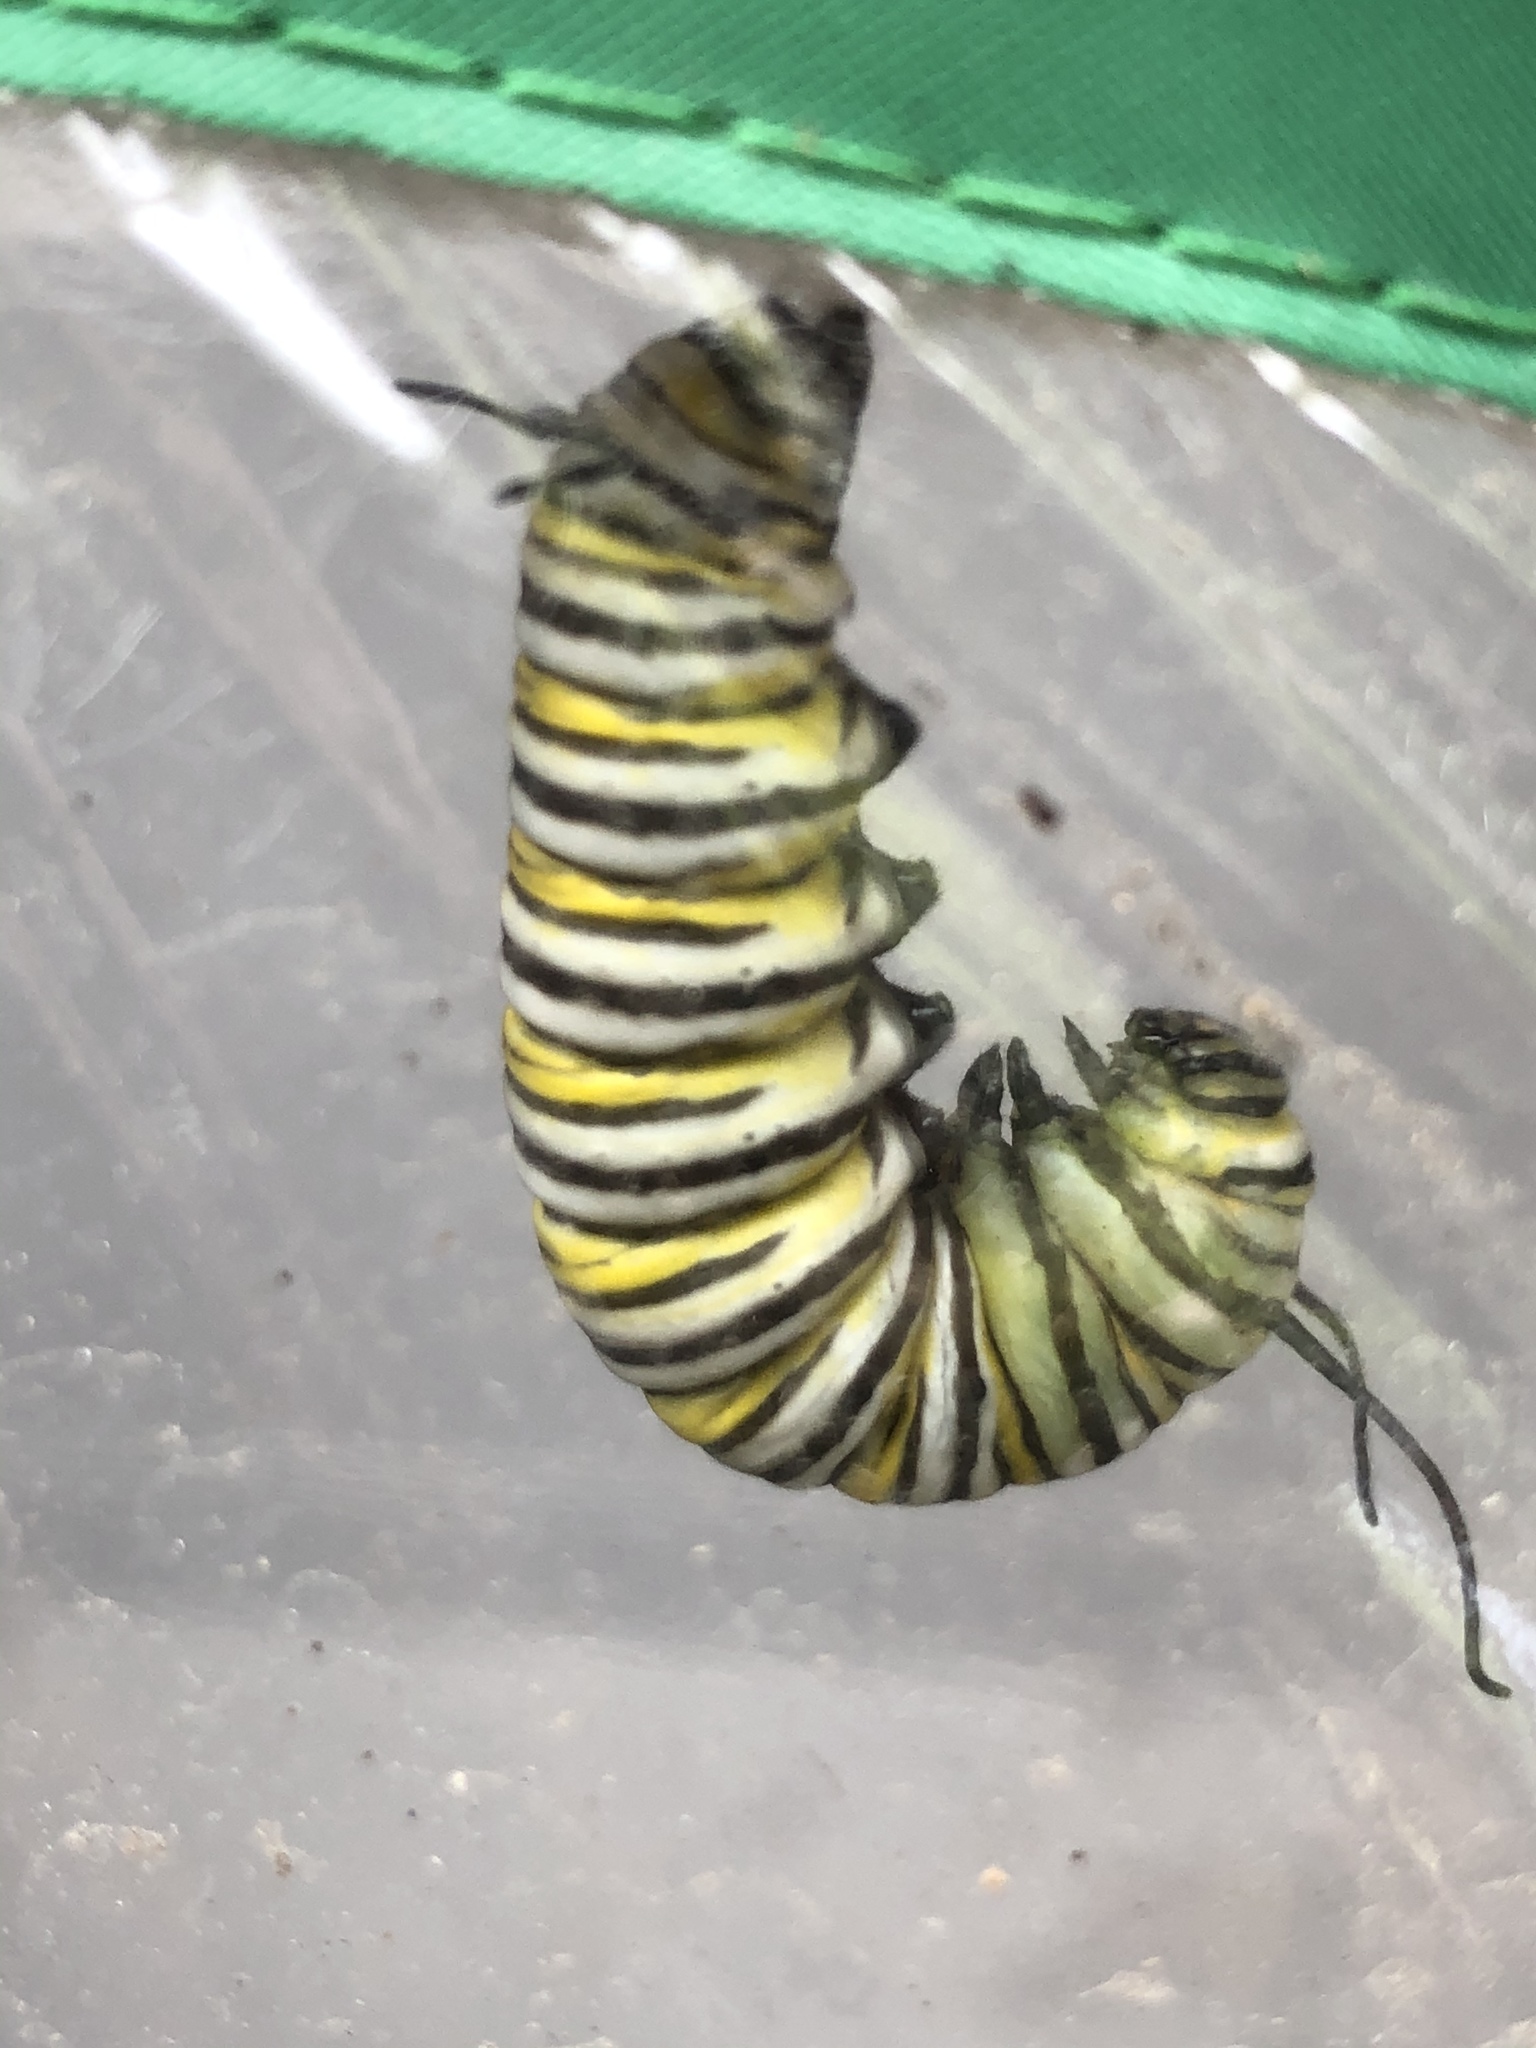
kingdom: Animalia
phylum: Arthropoda
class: Insecta
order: Lepidoptera
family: Nymphalidae
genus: Danaus
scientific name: Danaus plexippus
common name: Monarch
